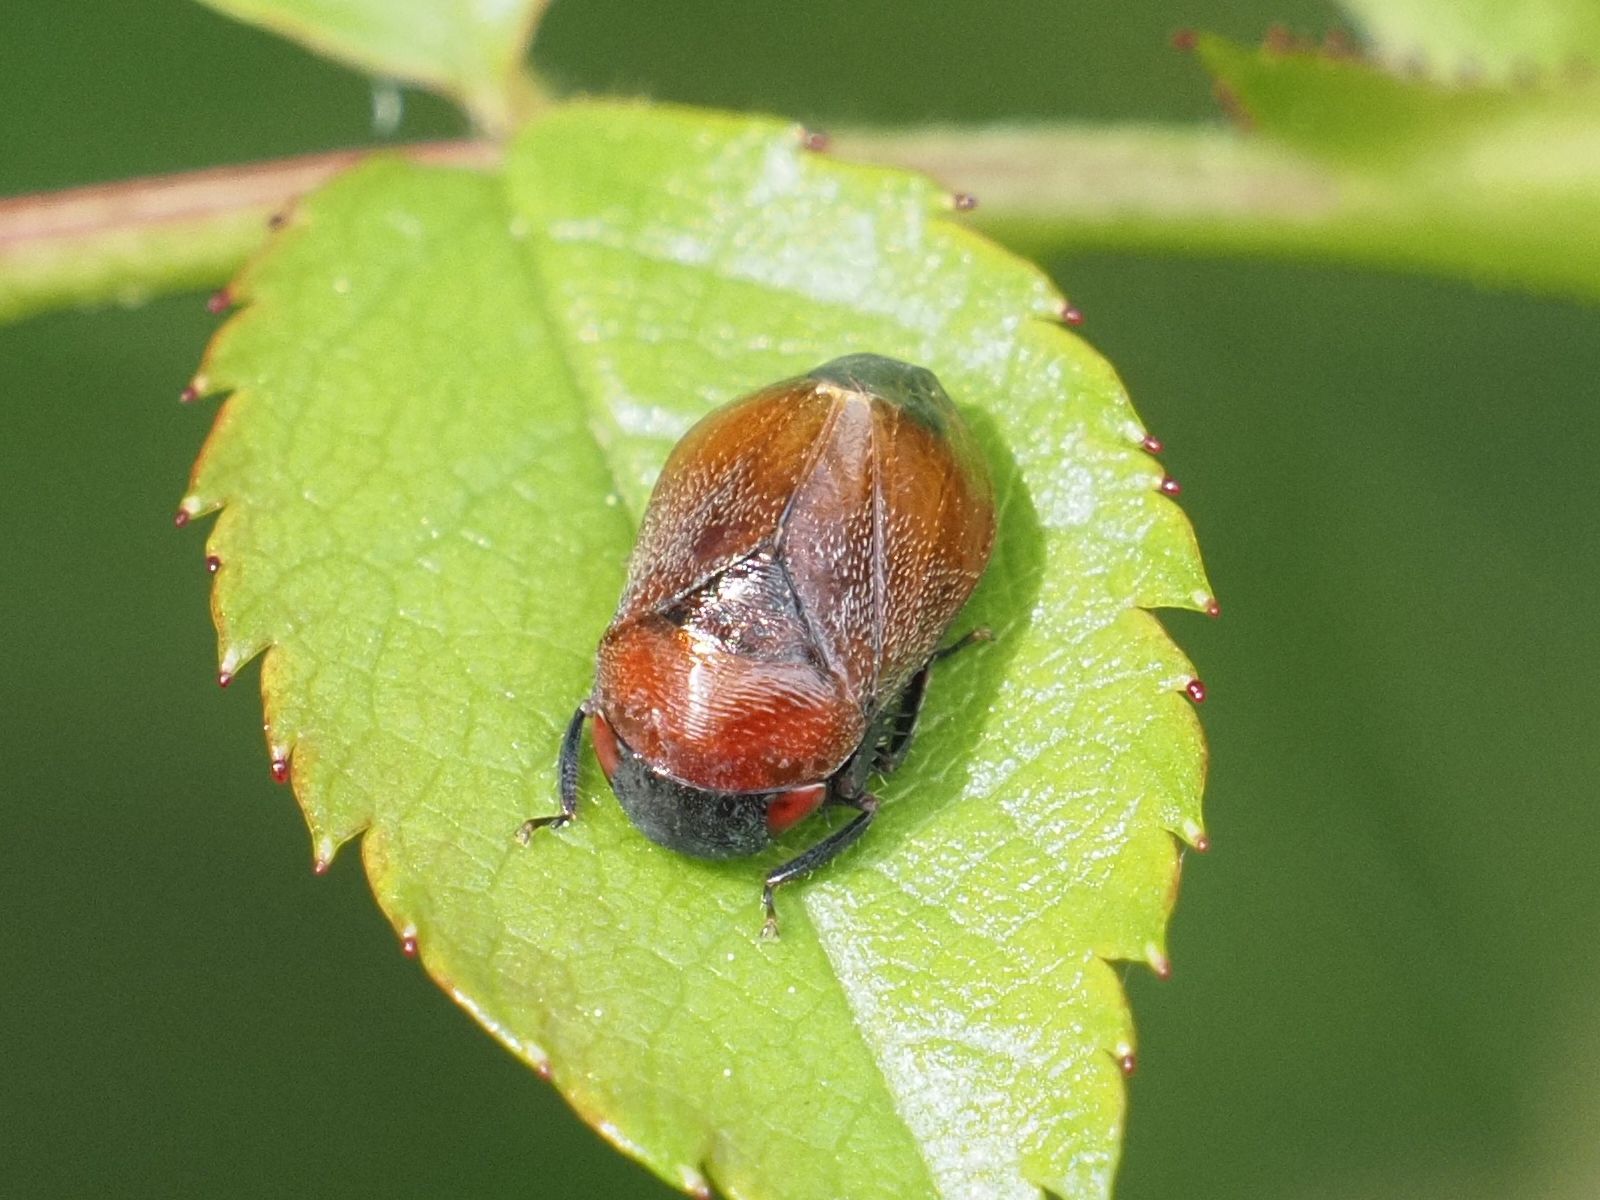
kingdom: Animalia
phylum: Arthropoda
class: Insecta
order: Hemiptera
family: Cicadellidae
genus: Penthimia
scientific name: Penthimia nigra
